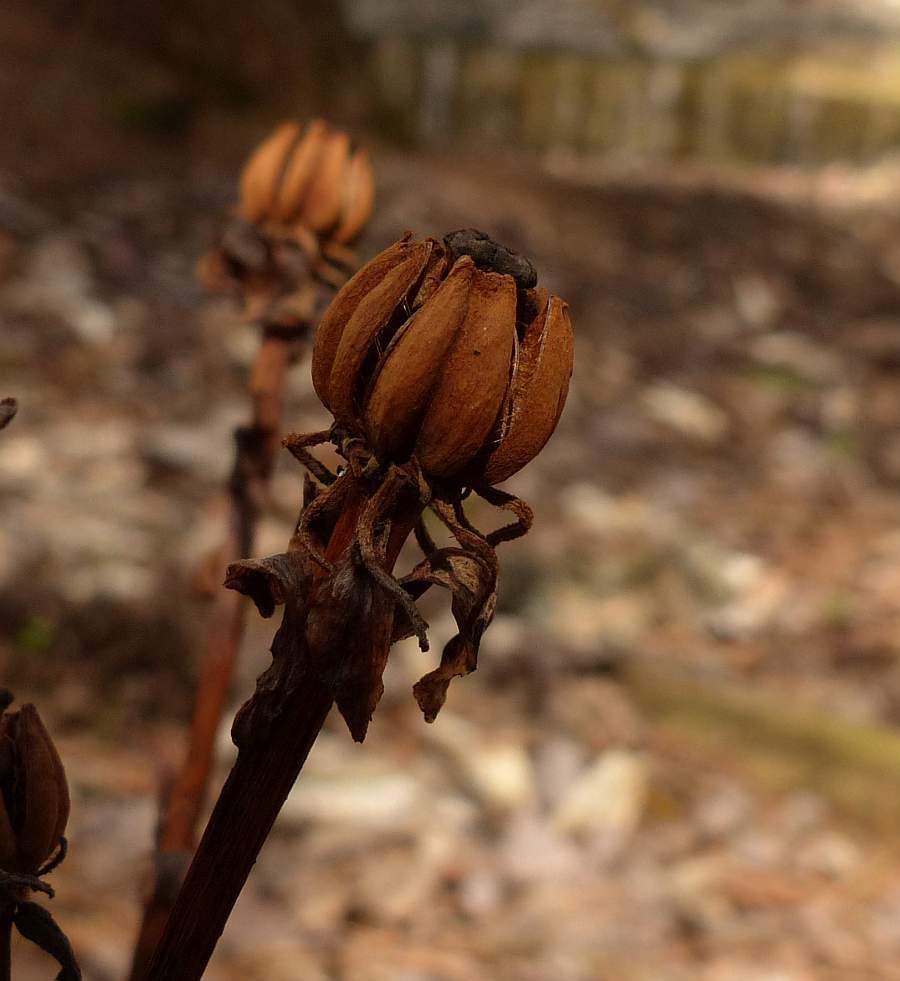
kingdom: Plantae
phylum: Tracheophyta
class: Magnoliopsida
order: Ericales
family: Ericaceae
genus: Monotropa
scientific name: Monotropa uniflora
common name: Convulsion root
